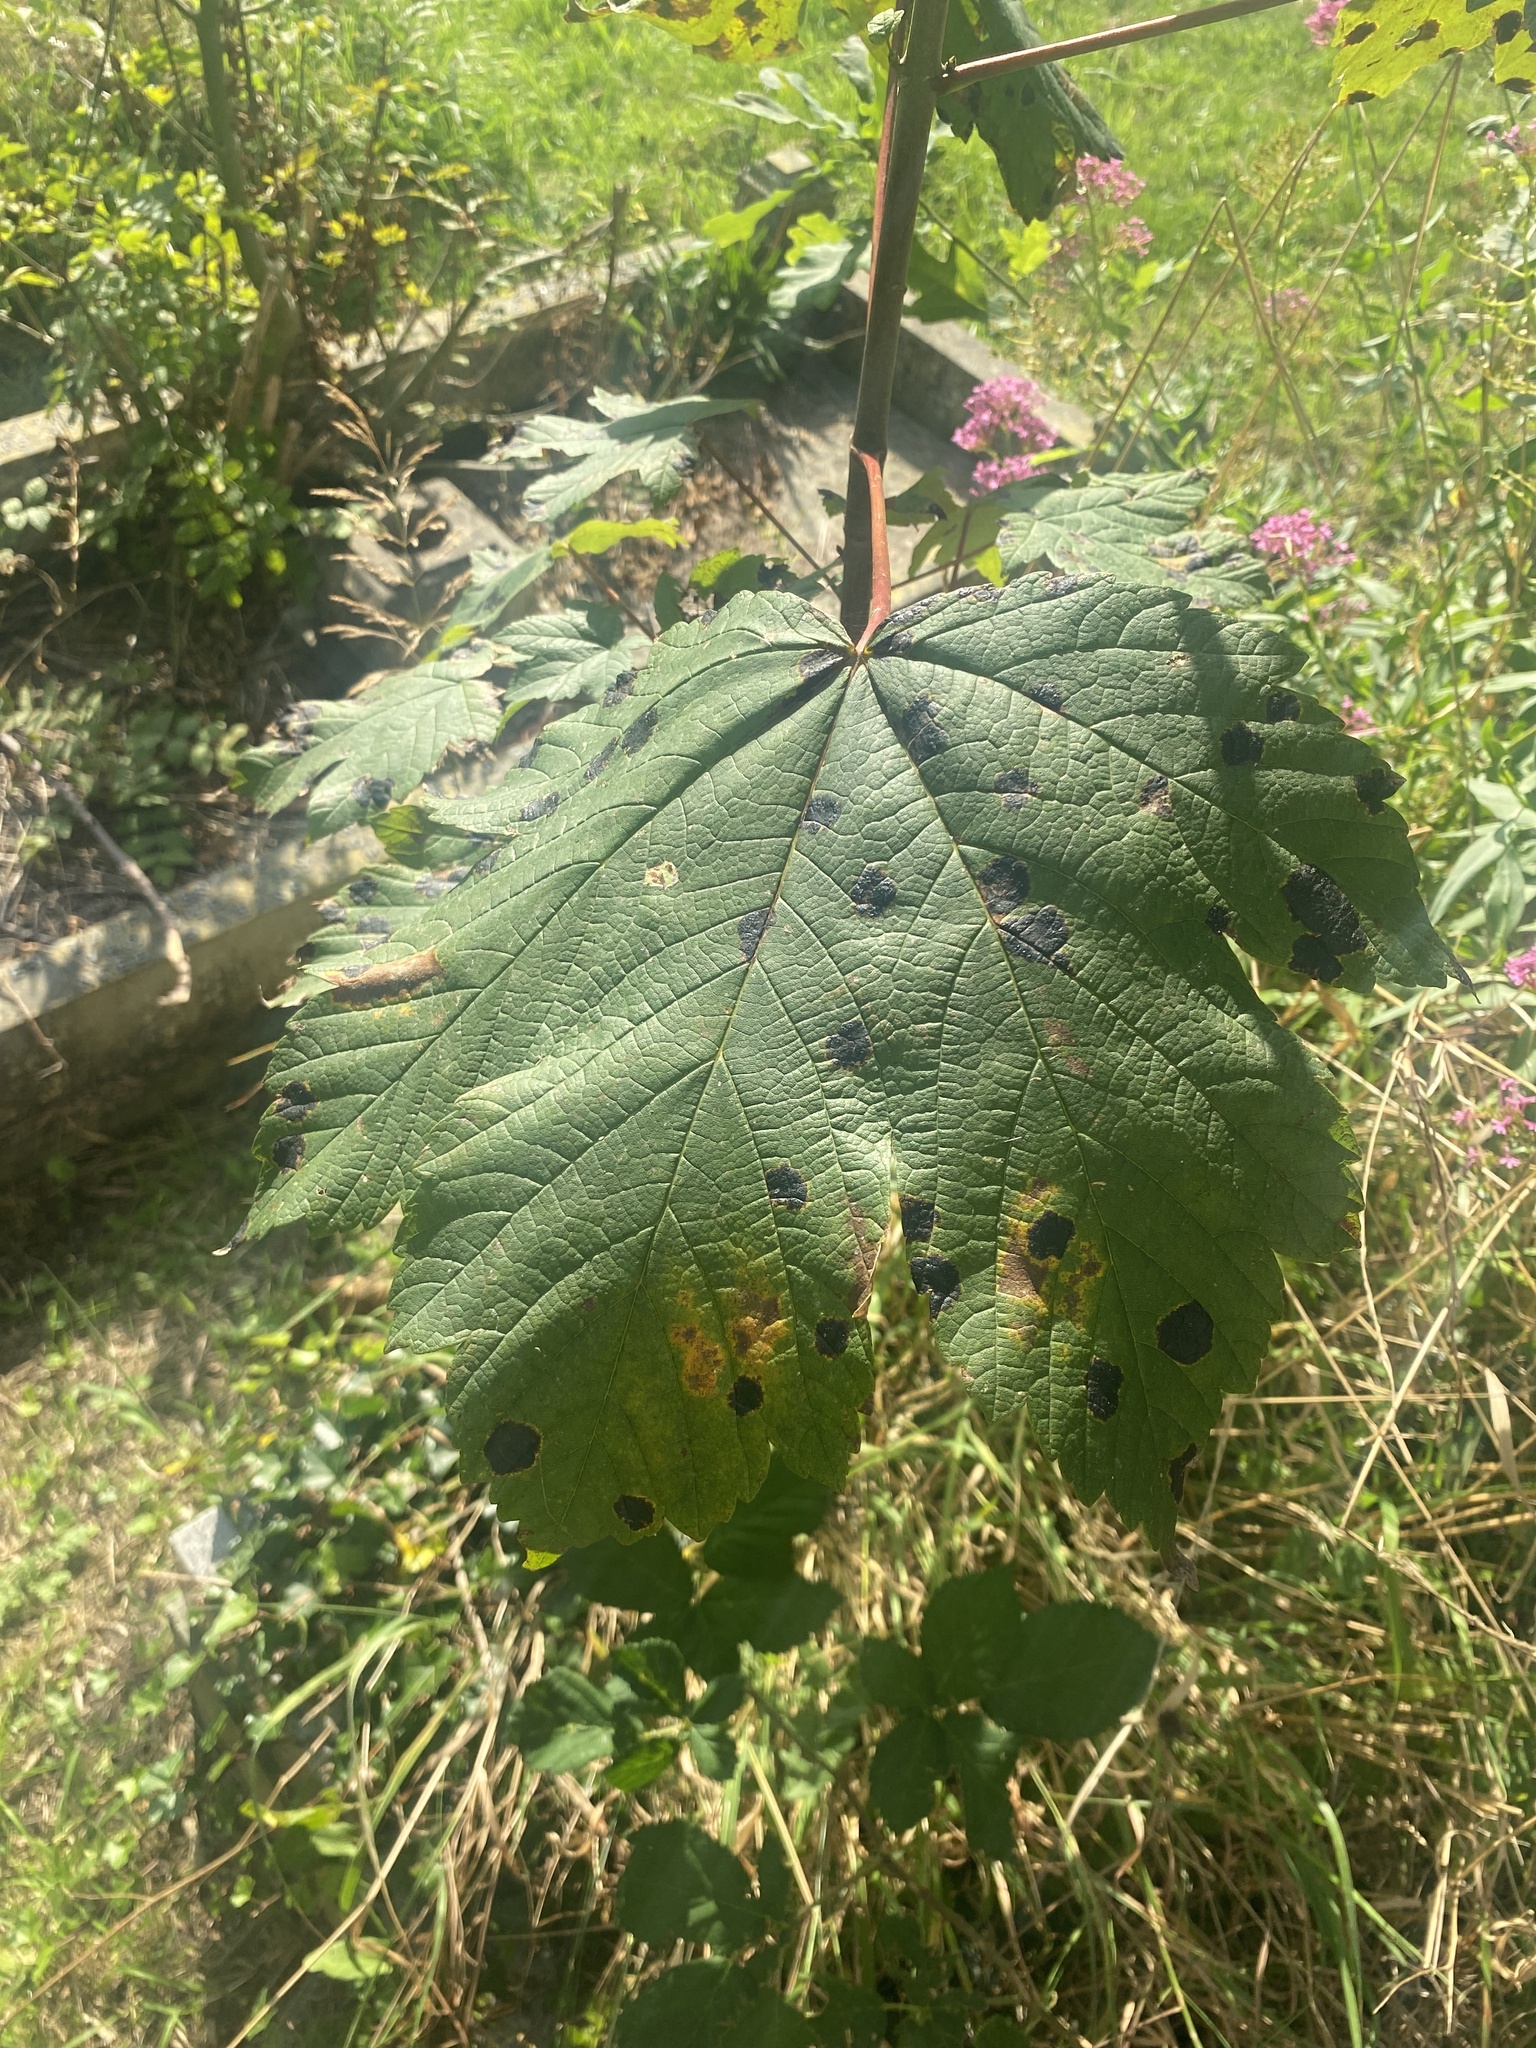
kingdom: Plantae
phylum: Tracheophyta
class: Magnoliopsida
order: Sapindales
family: Sapindaceae
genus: Acer
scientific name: Acer pseudoplatanus
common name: Sycamore
